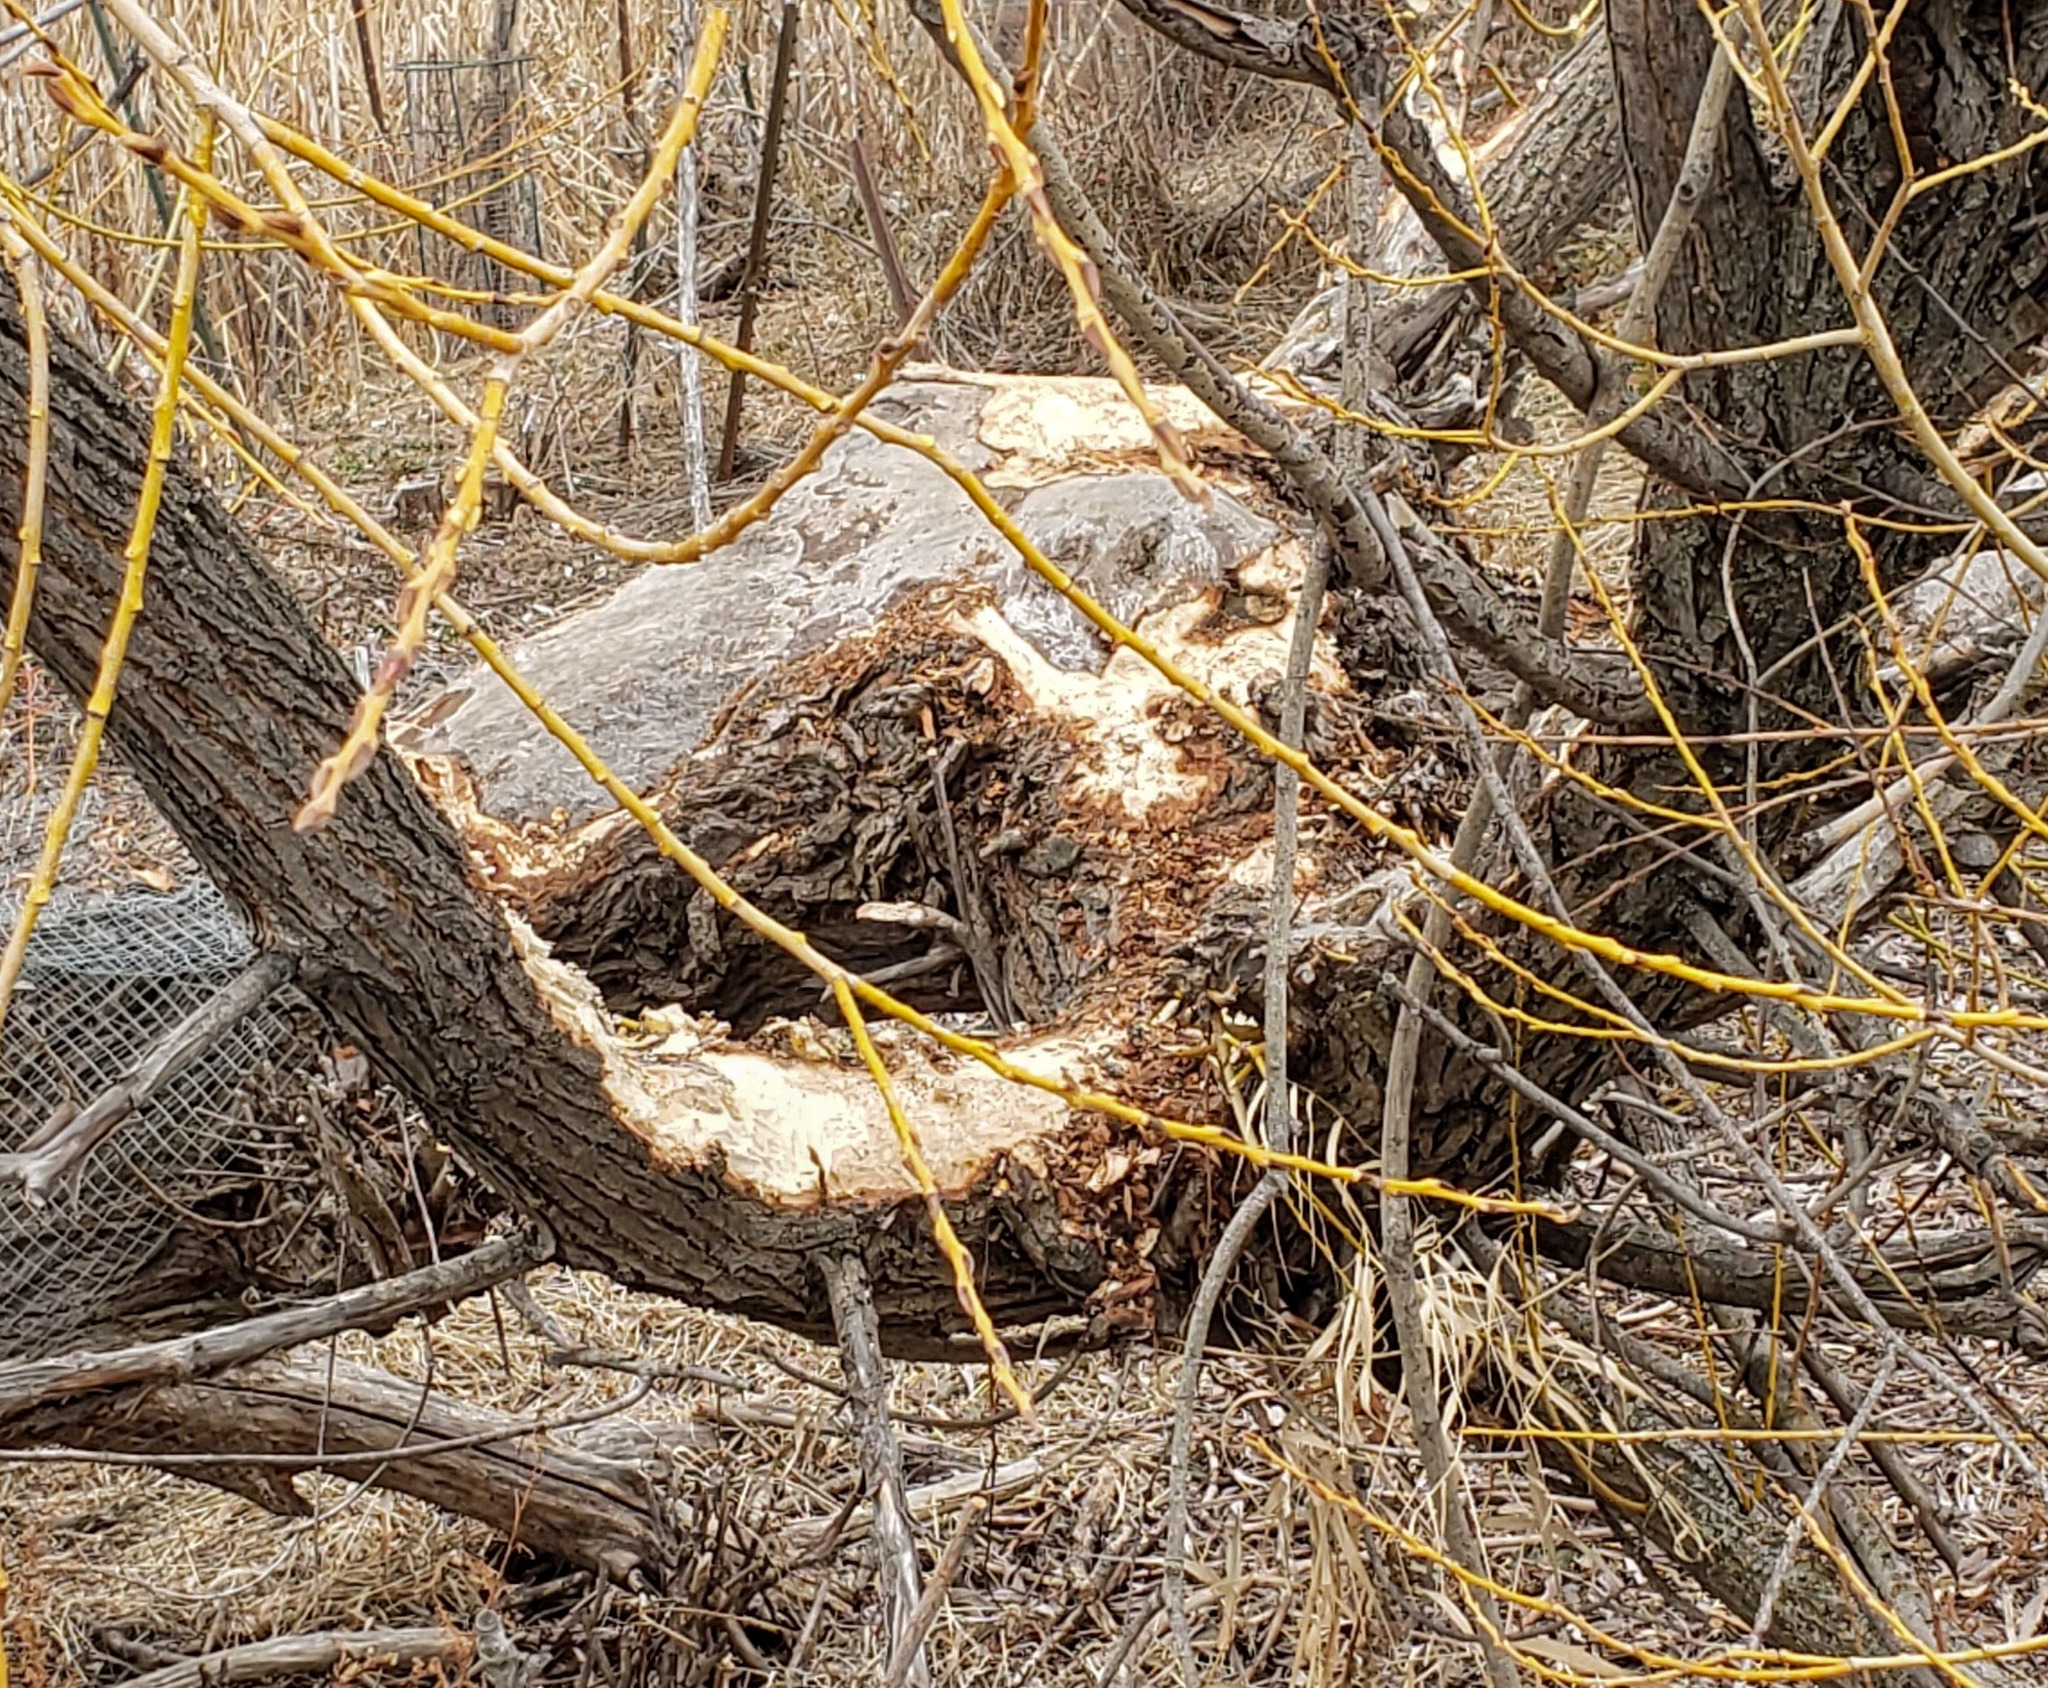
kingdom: Animalia
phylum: Chordata
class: Mammalia
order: Rodentia
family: Castoridae
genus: Castor
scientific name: Castor canadensis
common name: American beaver
